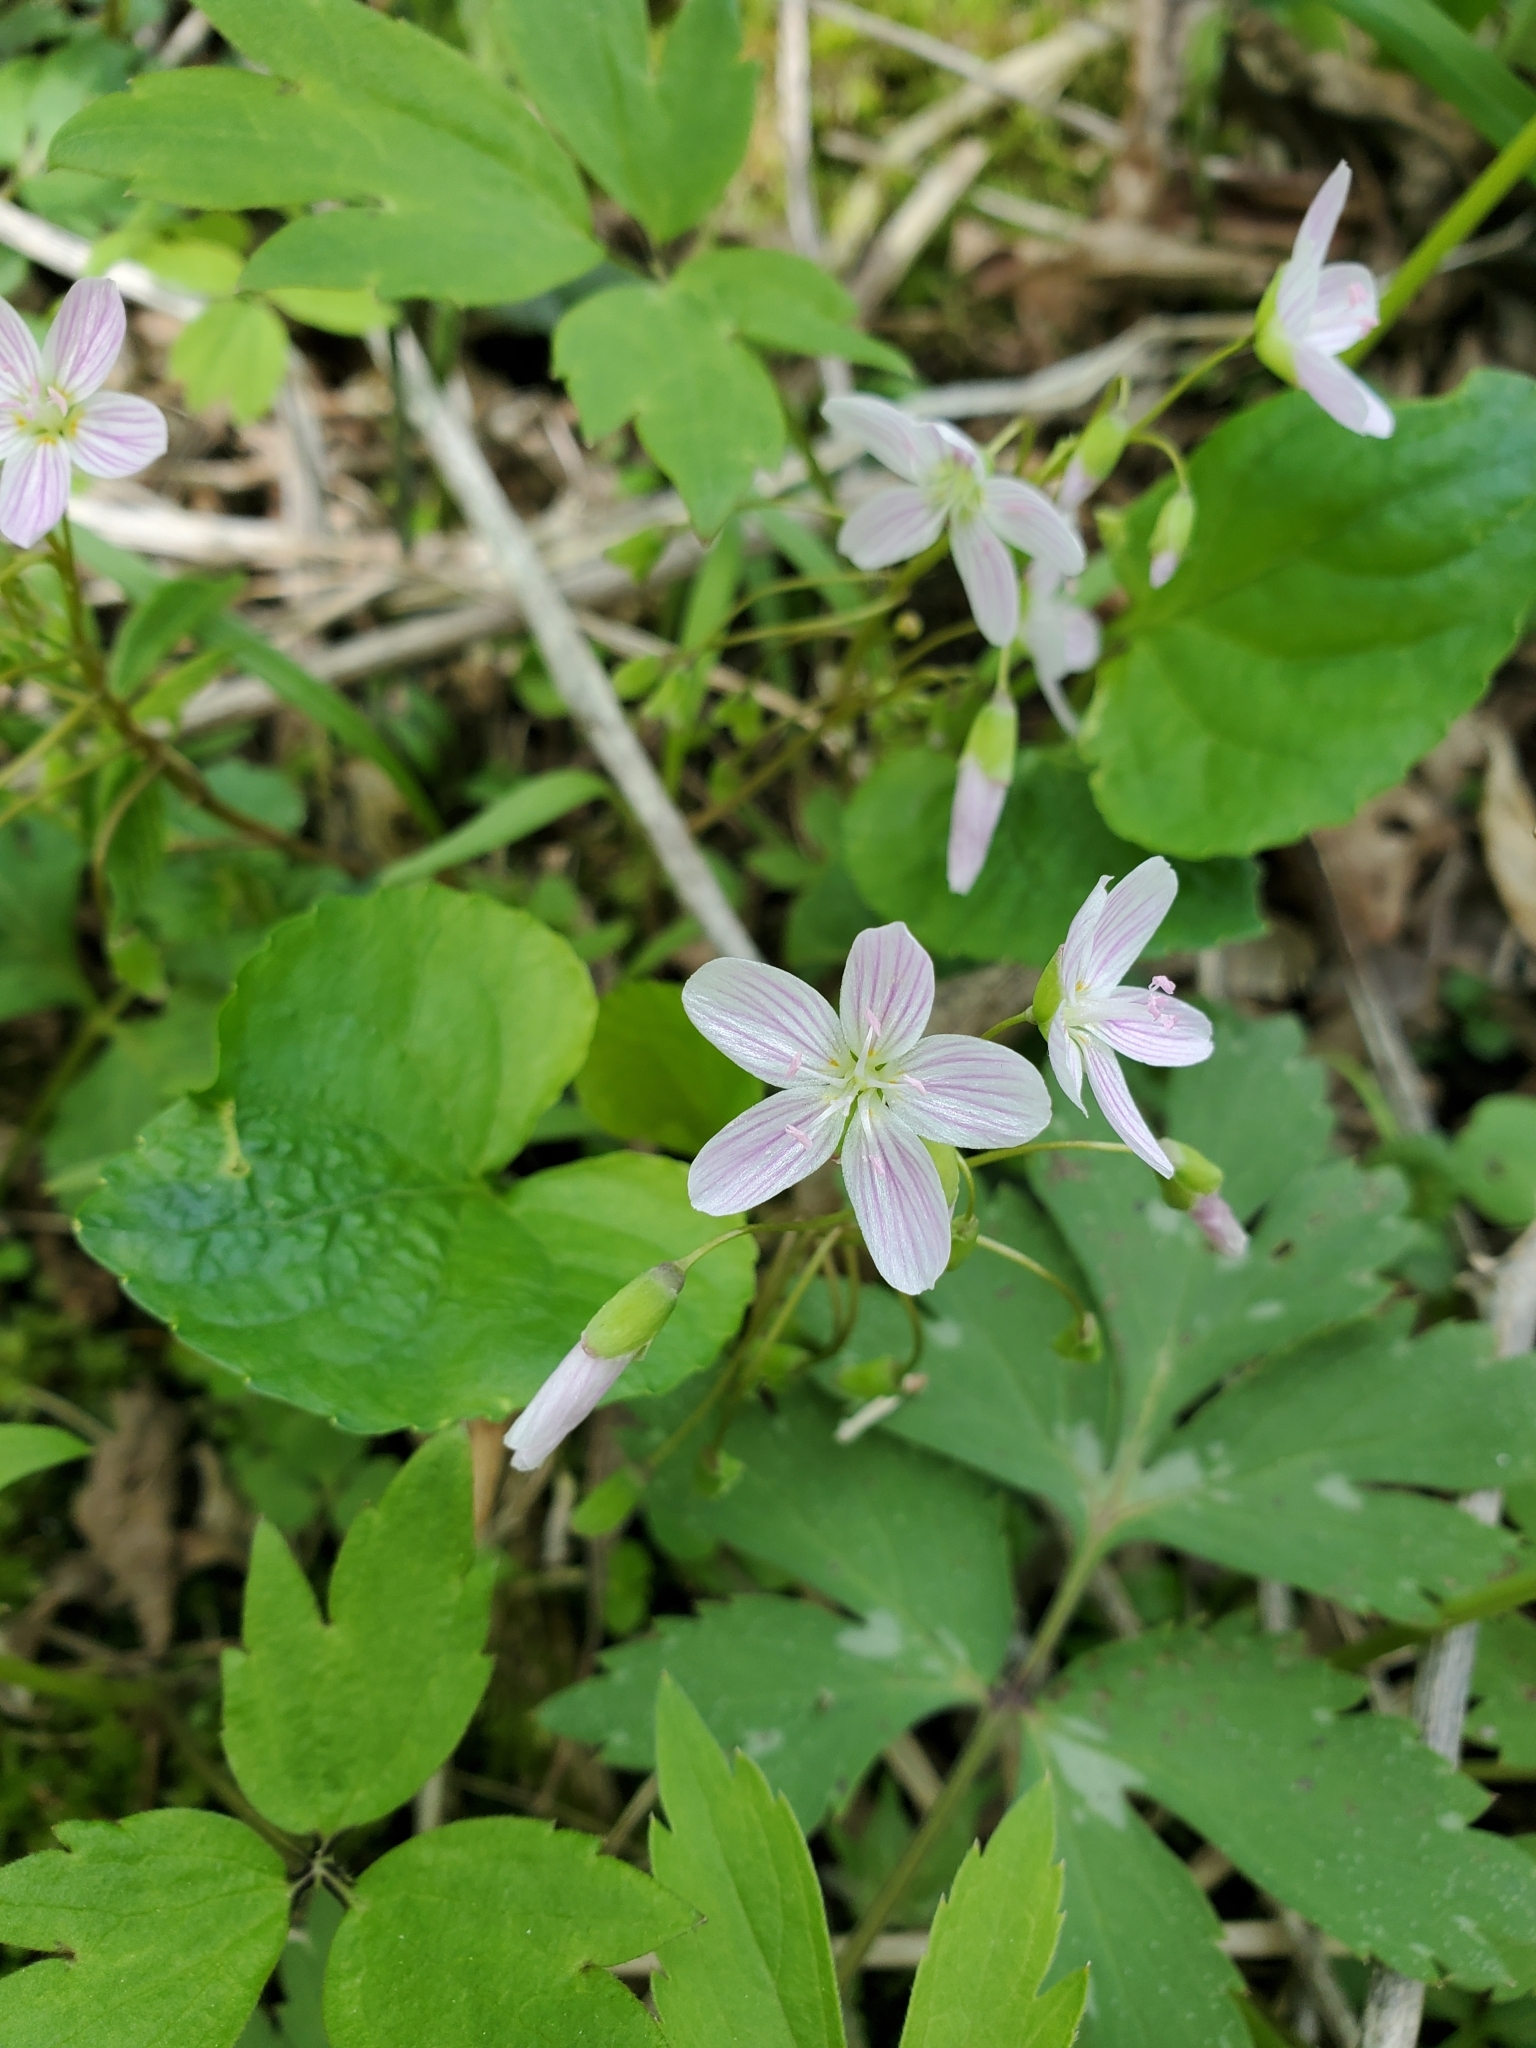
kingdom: Plantae
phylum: Tracheophyta
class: Magnoliopsida
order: Caryophyllales
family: Montiaceae
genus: Claytonia
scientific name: Claytonia virginica
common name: Virginia springbeauty
